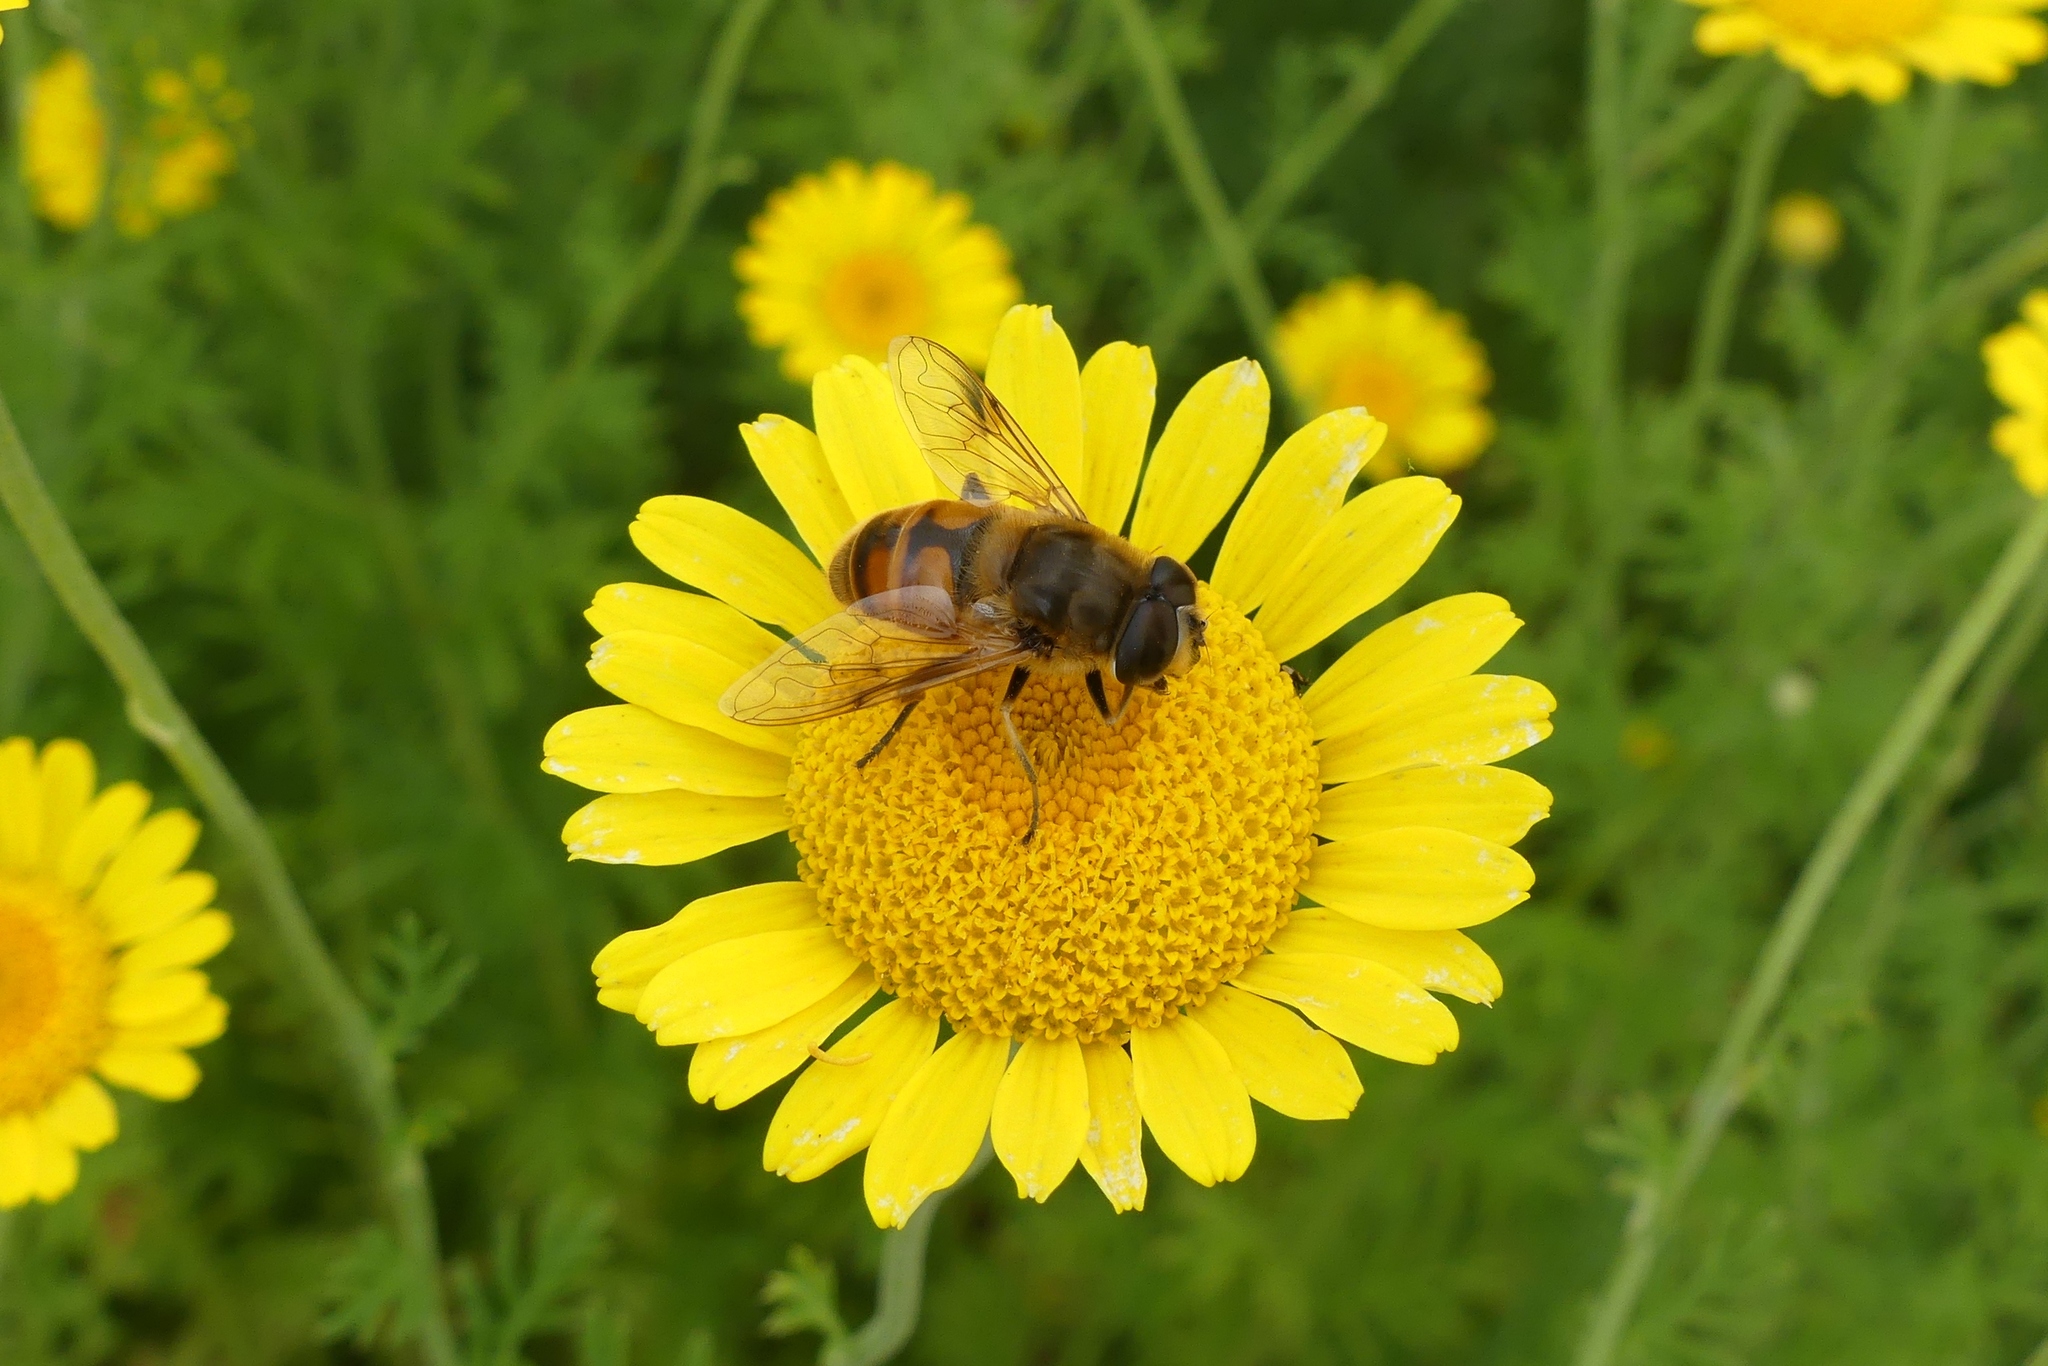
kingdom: Animalia
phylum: Arthropoda
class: Insecta
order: Diptera
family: Syrphidae
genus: Eristalis
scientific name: Eristalis tenax
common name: Drone fly
